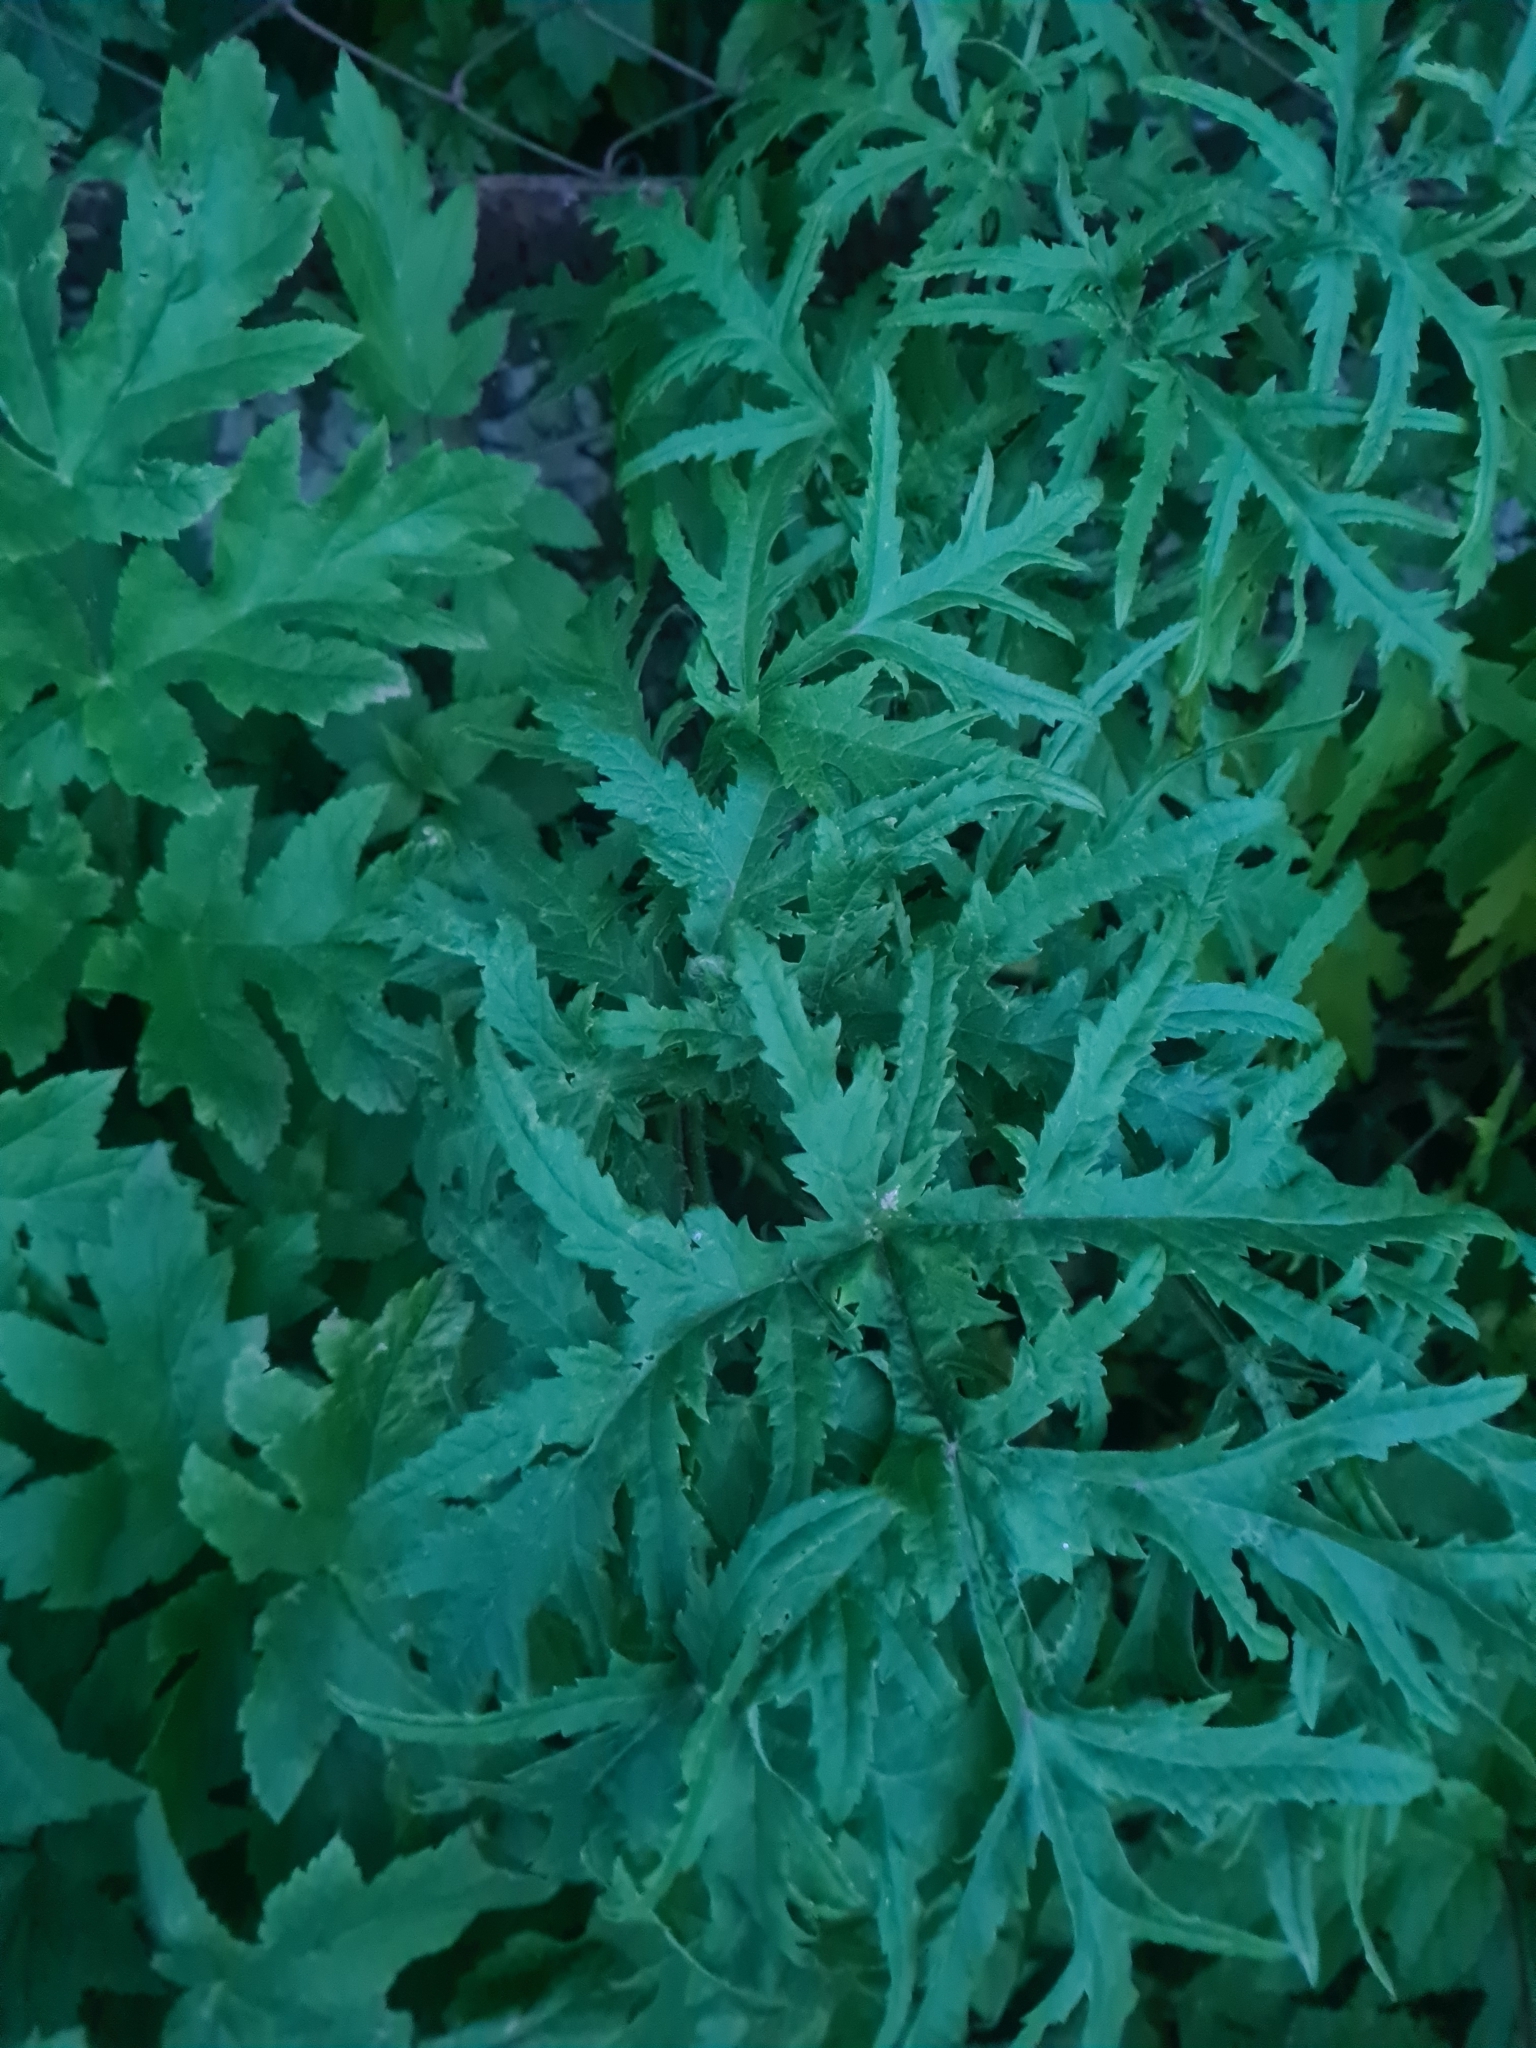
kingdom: Plantae
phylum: Tracheophyta
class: Magnoliopsida
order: Apiales
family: Apiaceae
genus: Heracleum
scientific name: Heracleum sphondylium
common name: Hogweed
